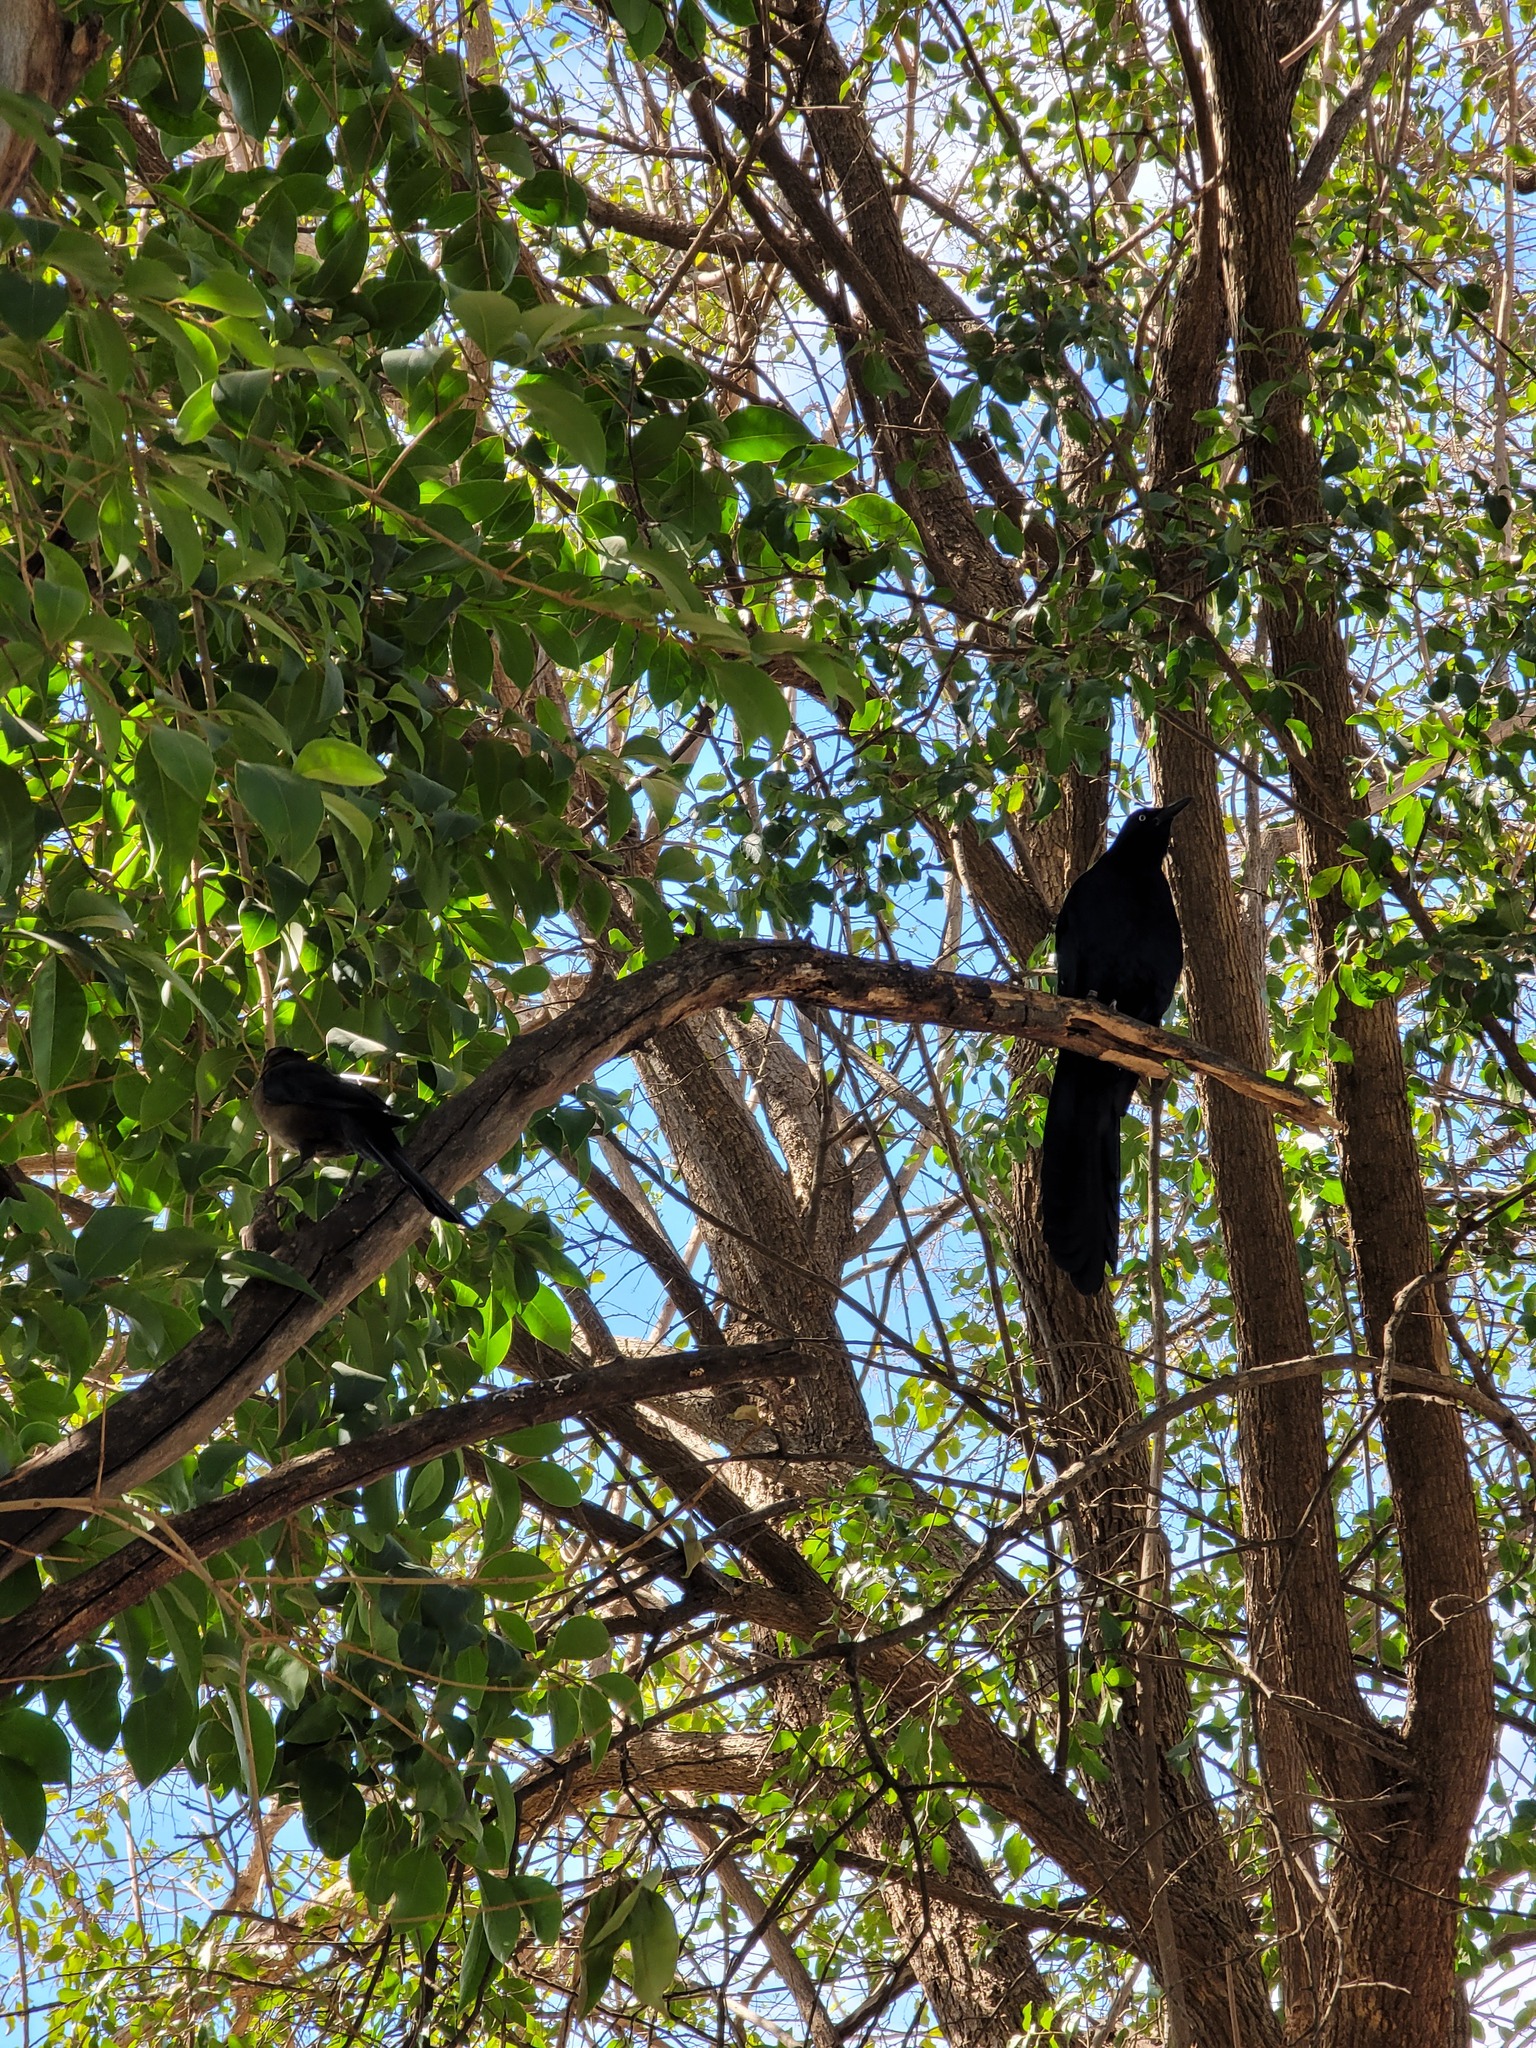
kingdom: Animalia
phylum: Chordata
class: Aves
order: Passeriformes
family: Icteridae
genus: Quiscalus
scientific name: Quiscalus mexicanus
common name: Great-tailed grackle
